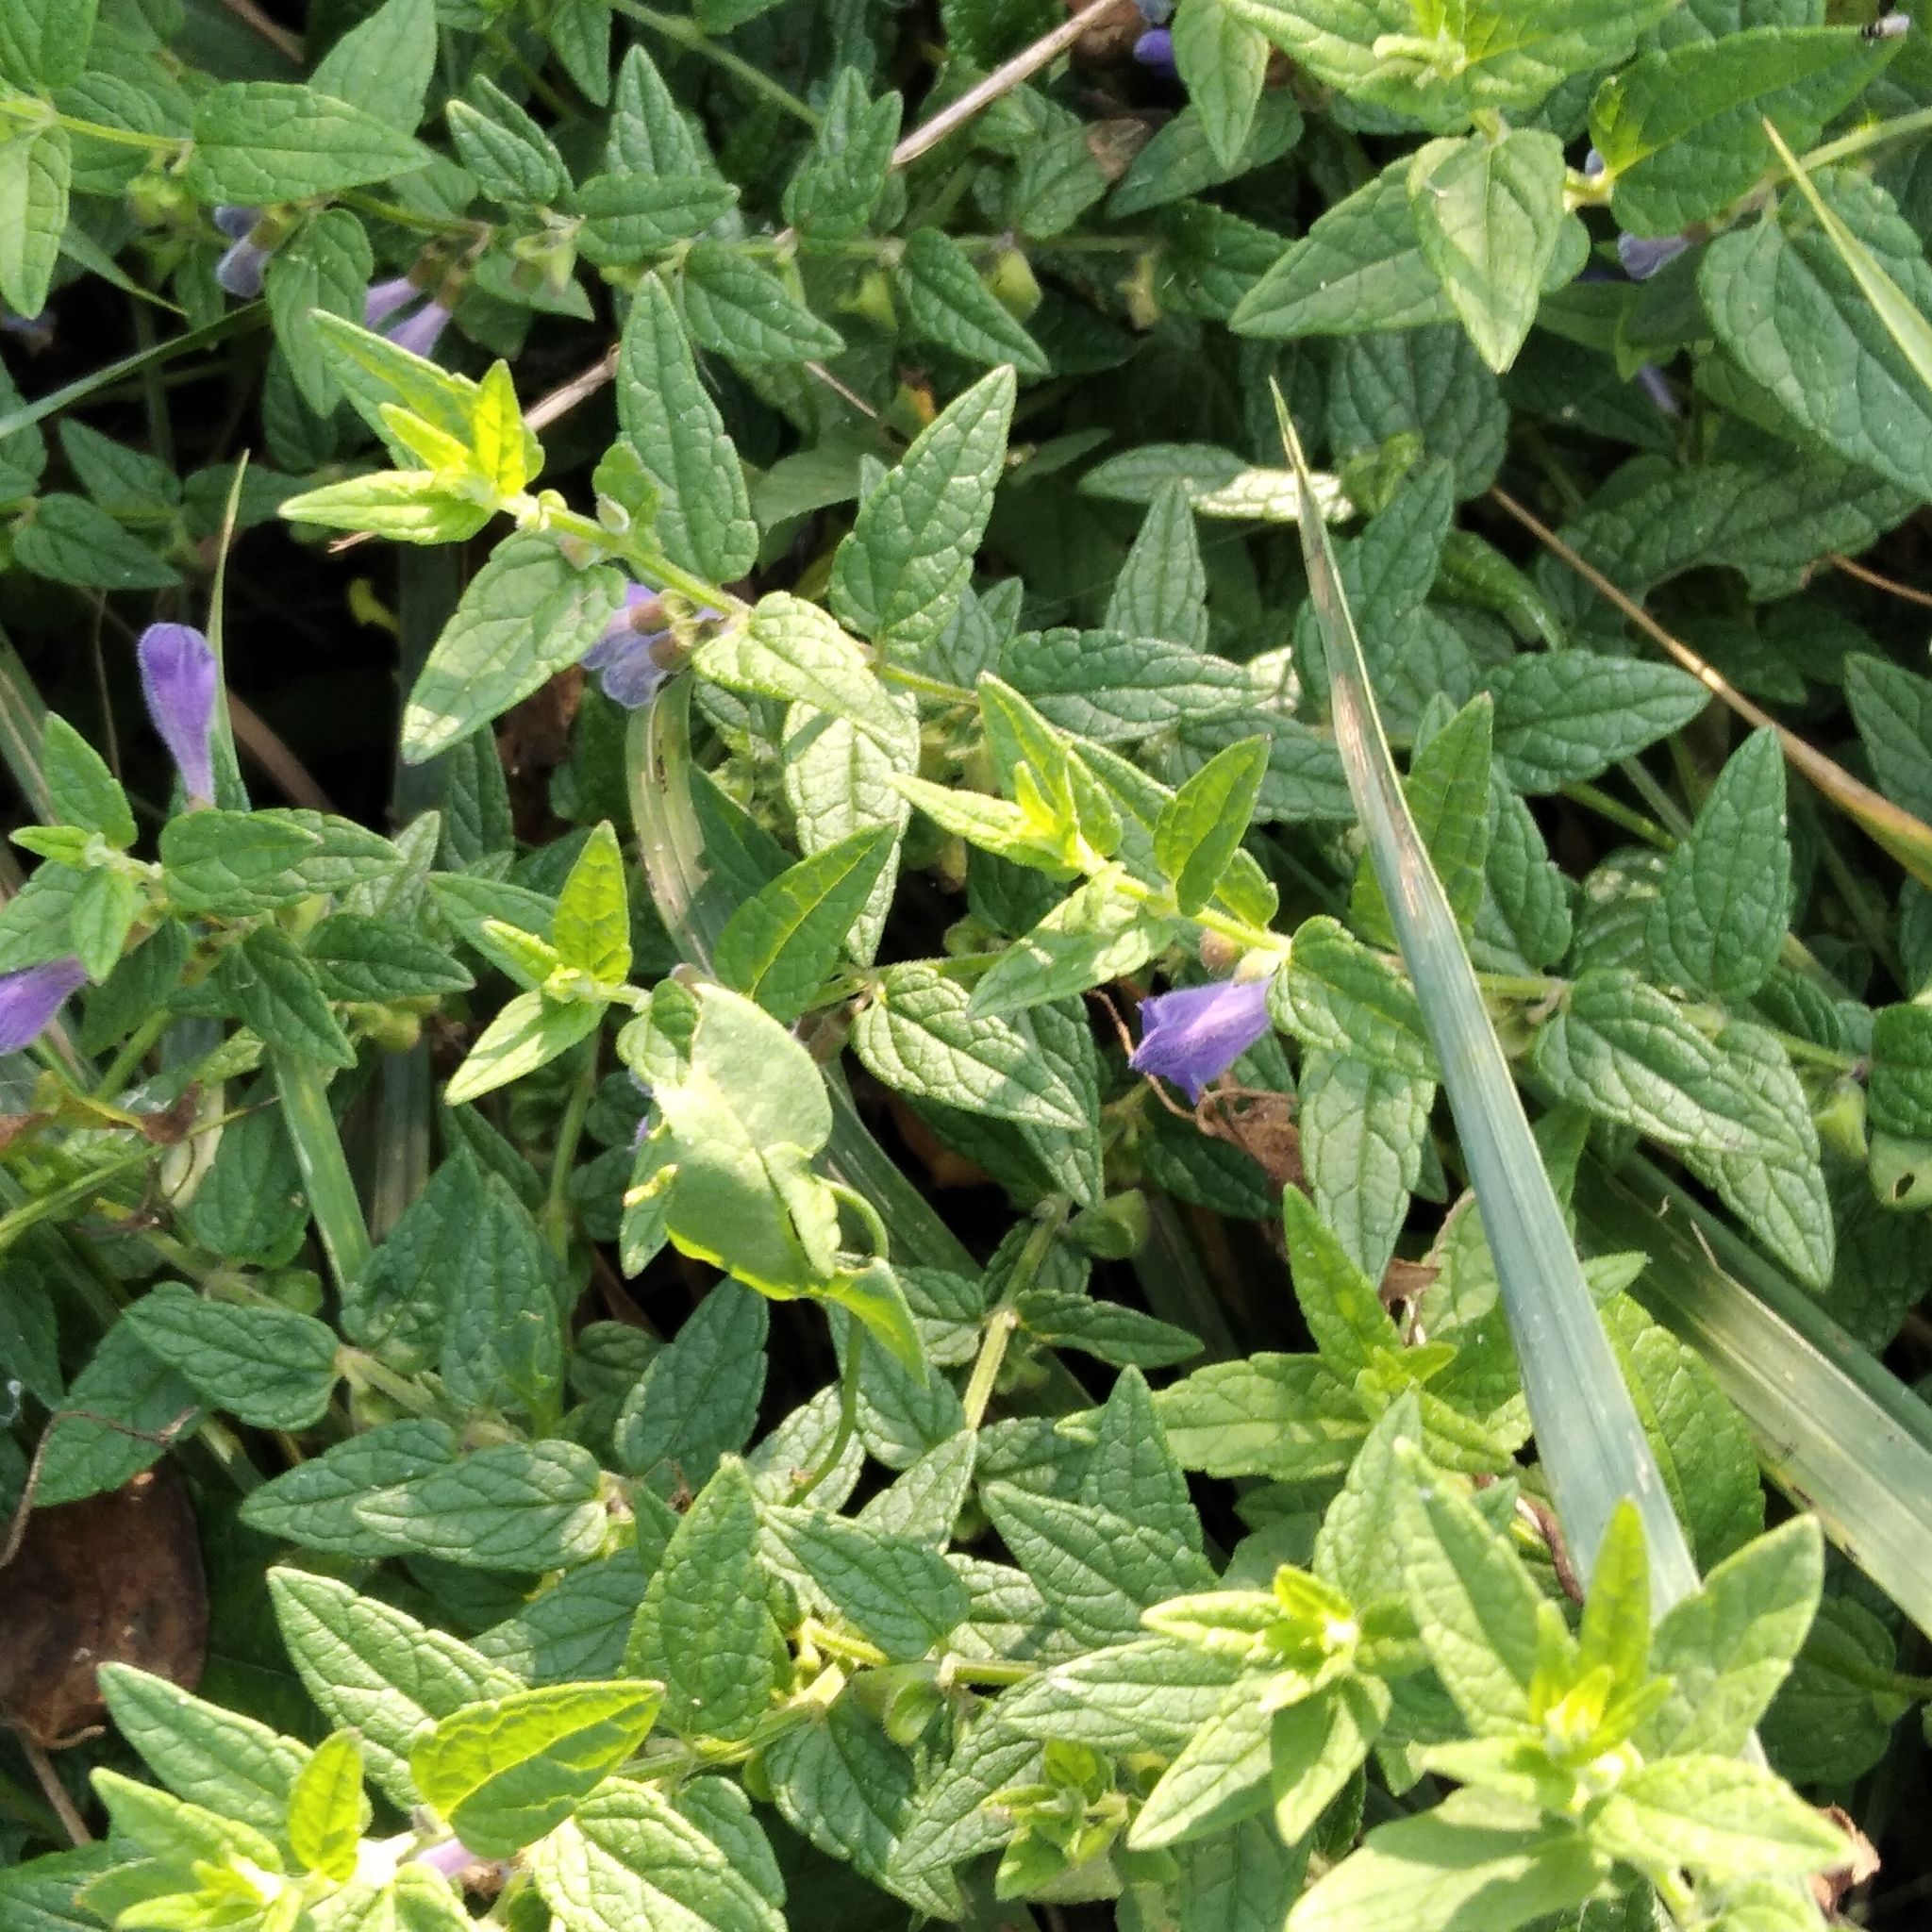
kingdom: Plantae
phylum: Tracheophyta
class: Magnoliopsida
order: Lamiales
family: Lamiaceae
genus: Scutellaria
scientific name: Scutellaria galericulata
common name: Skullcap
